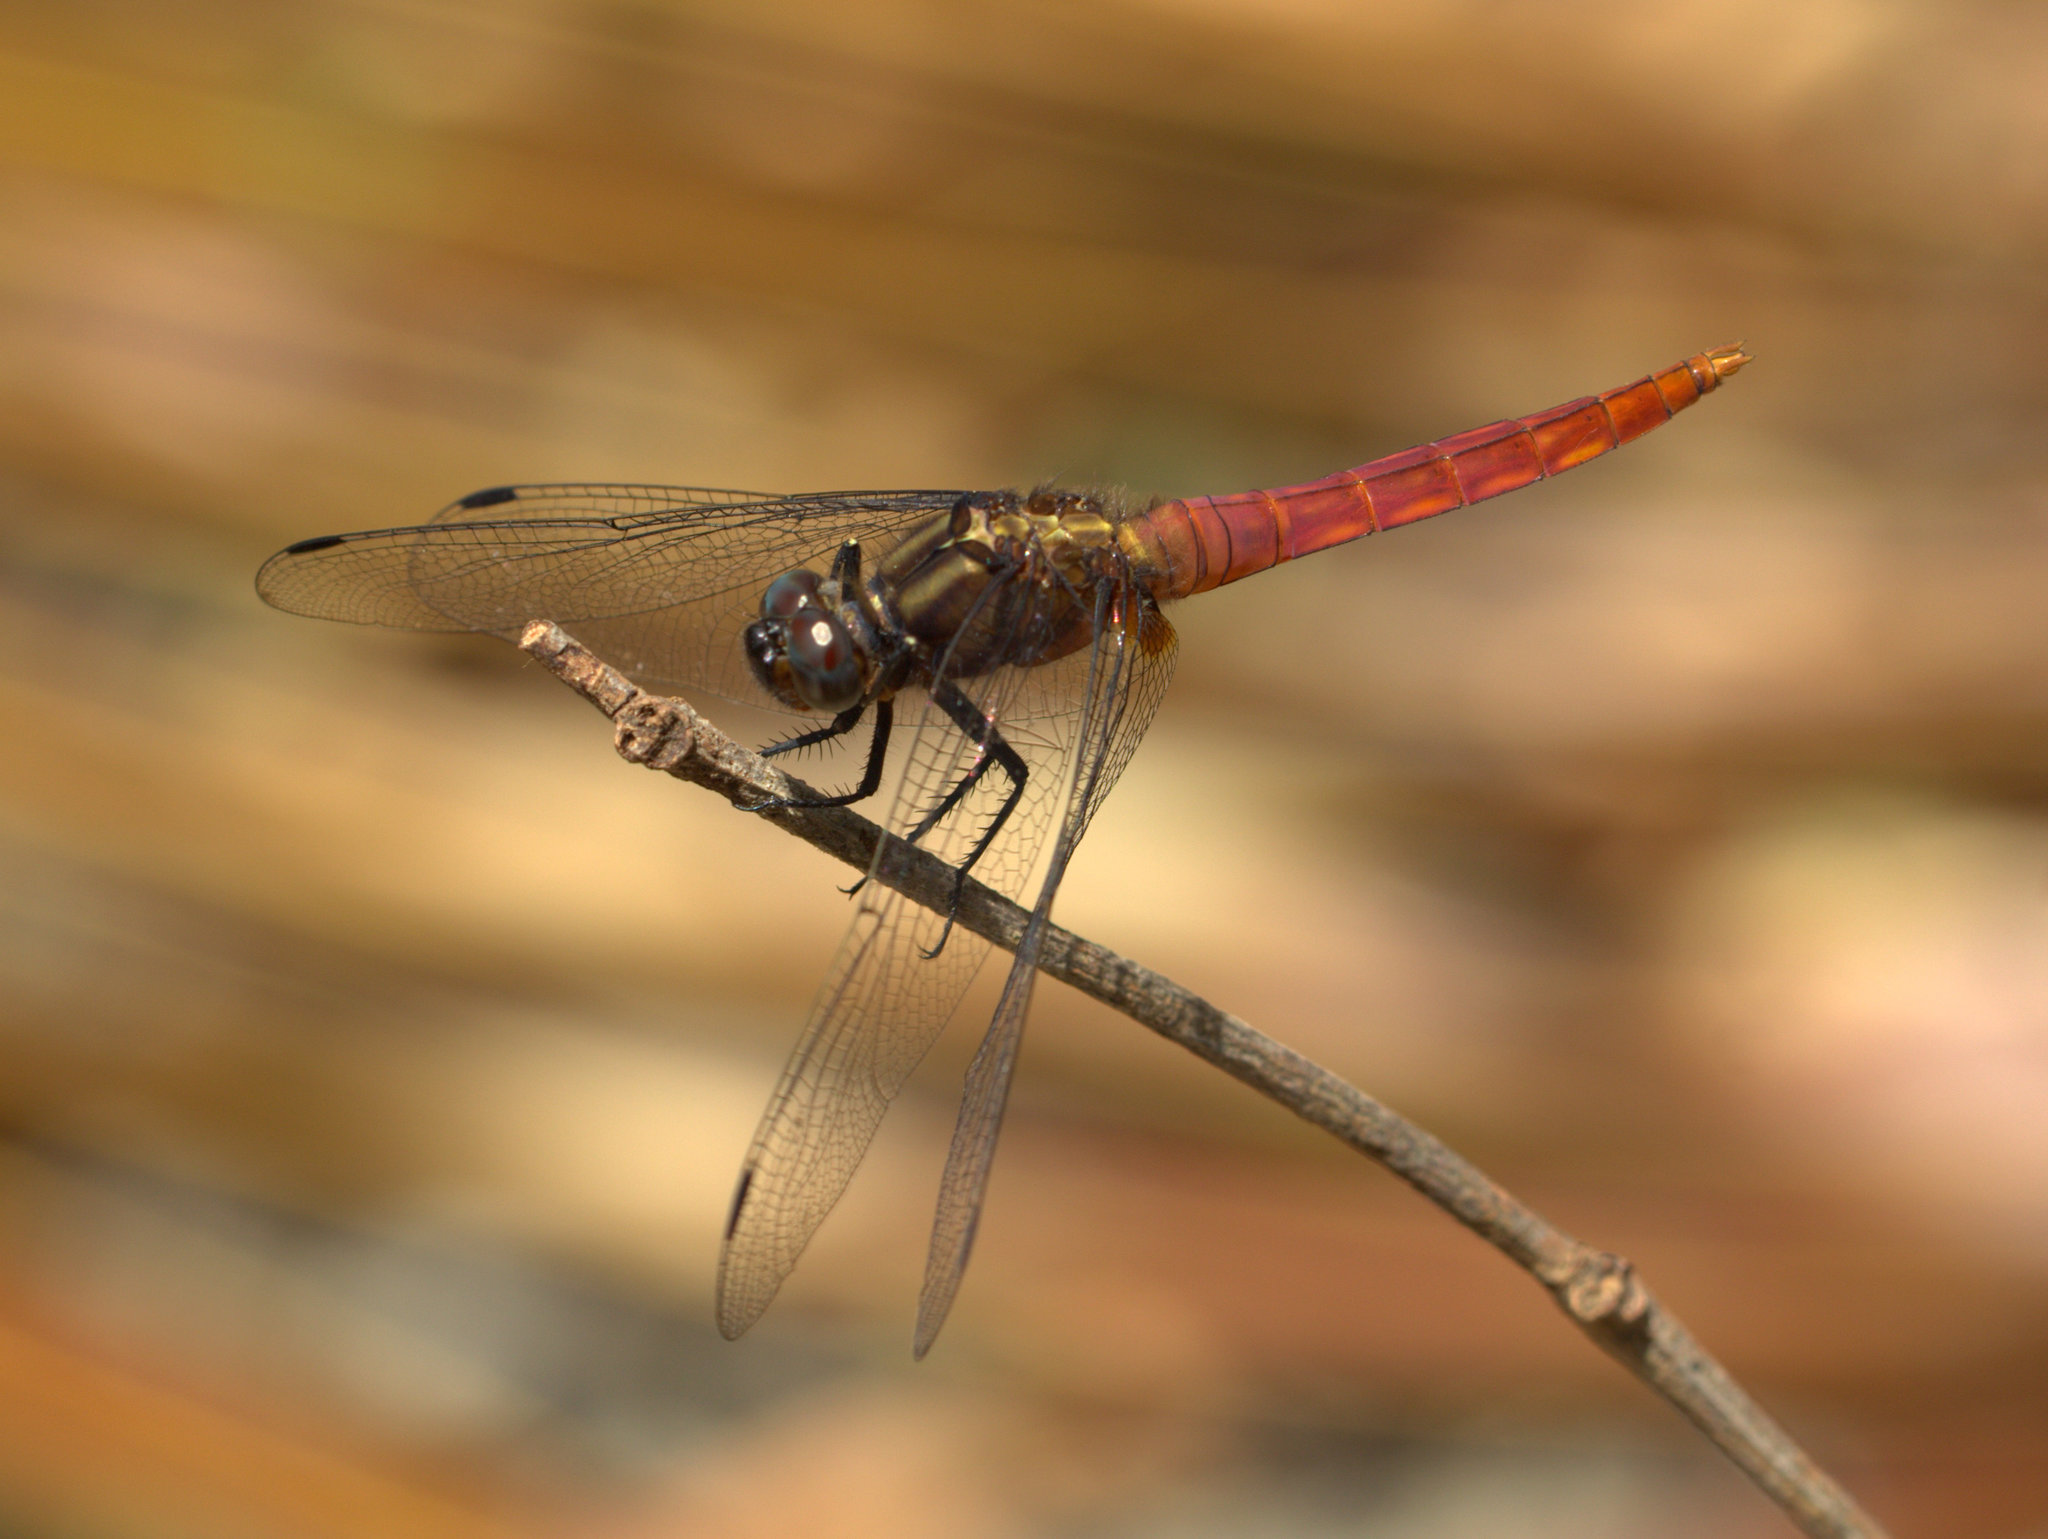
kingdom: Animalia
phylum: Arthropoda
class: Insecta
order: Odonata
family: Libellulidae
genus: Orthetrum
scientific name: Orthetrum chrysis
